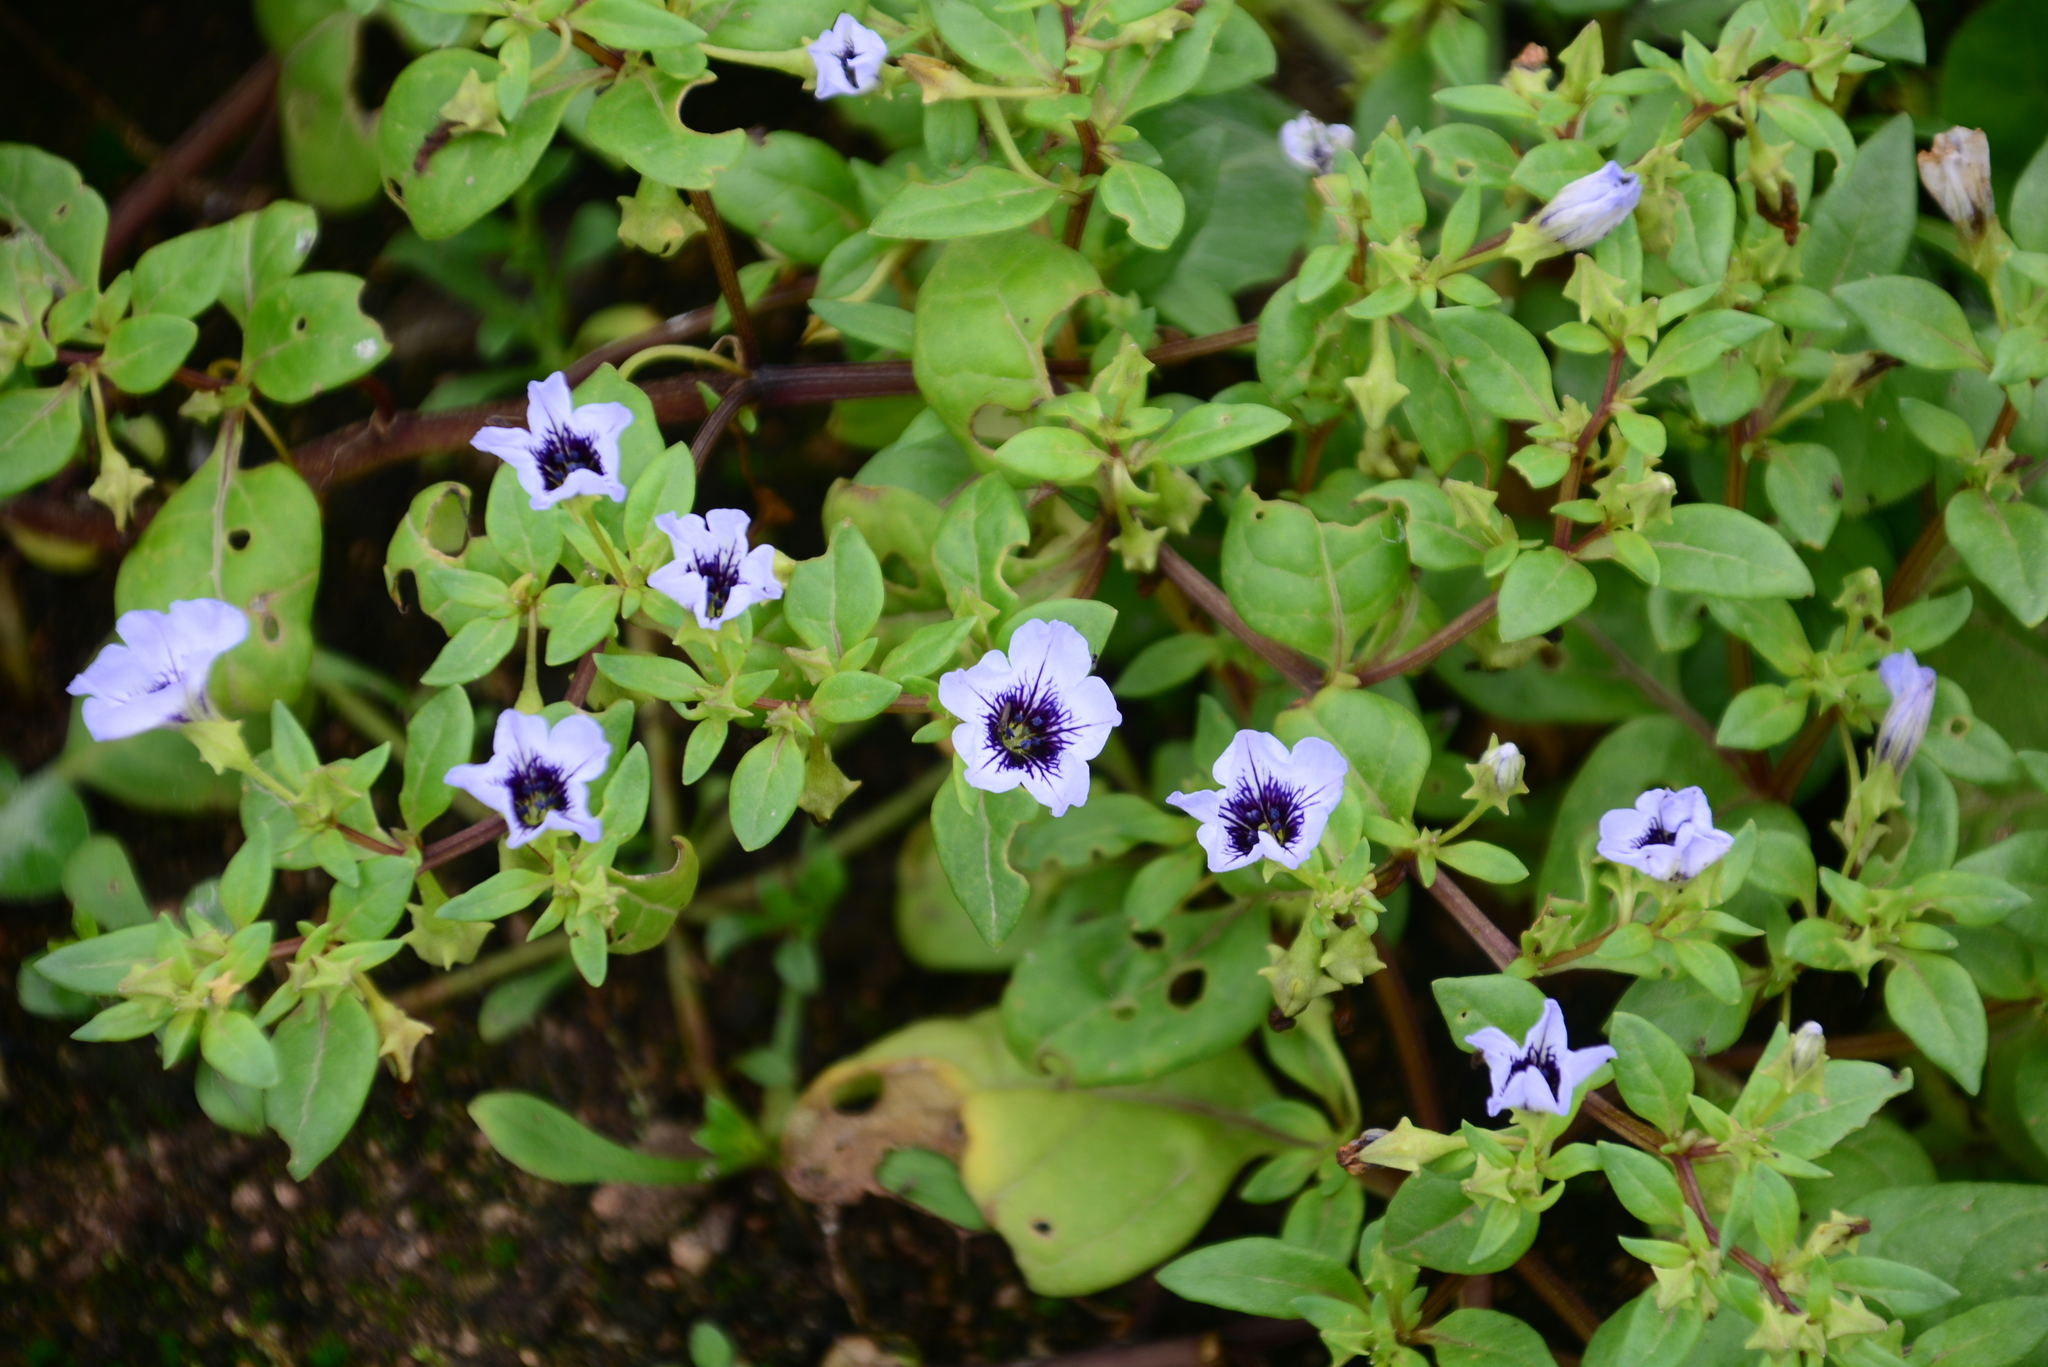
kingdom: Plantae
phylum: Tracheophyta
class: Magnoliopsida
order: Solanales
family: Solanaceae
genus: Nolana
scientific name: Nolana humifusa
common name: Trailing chilean-bellflower
